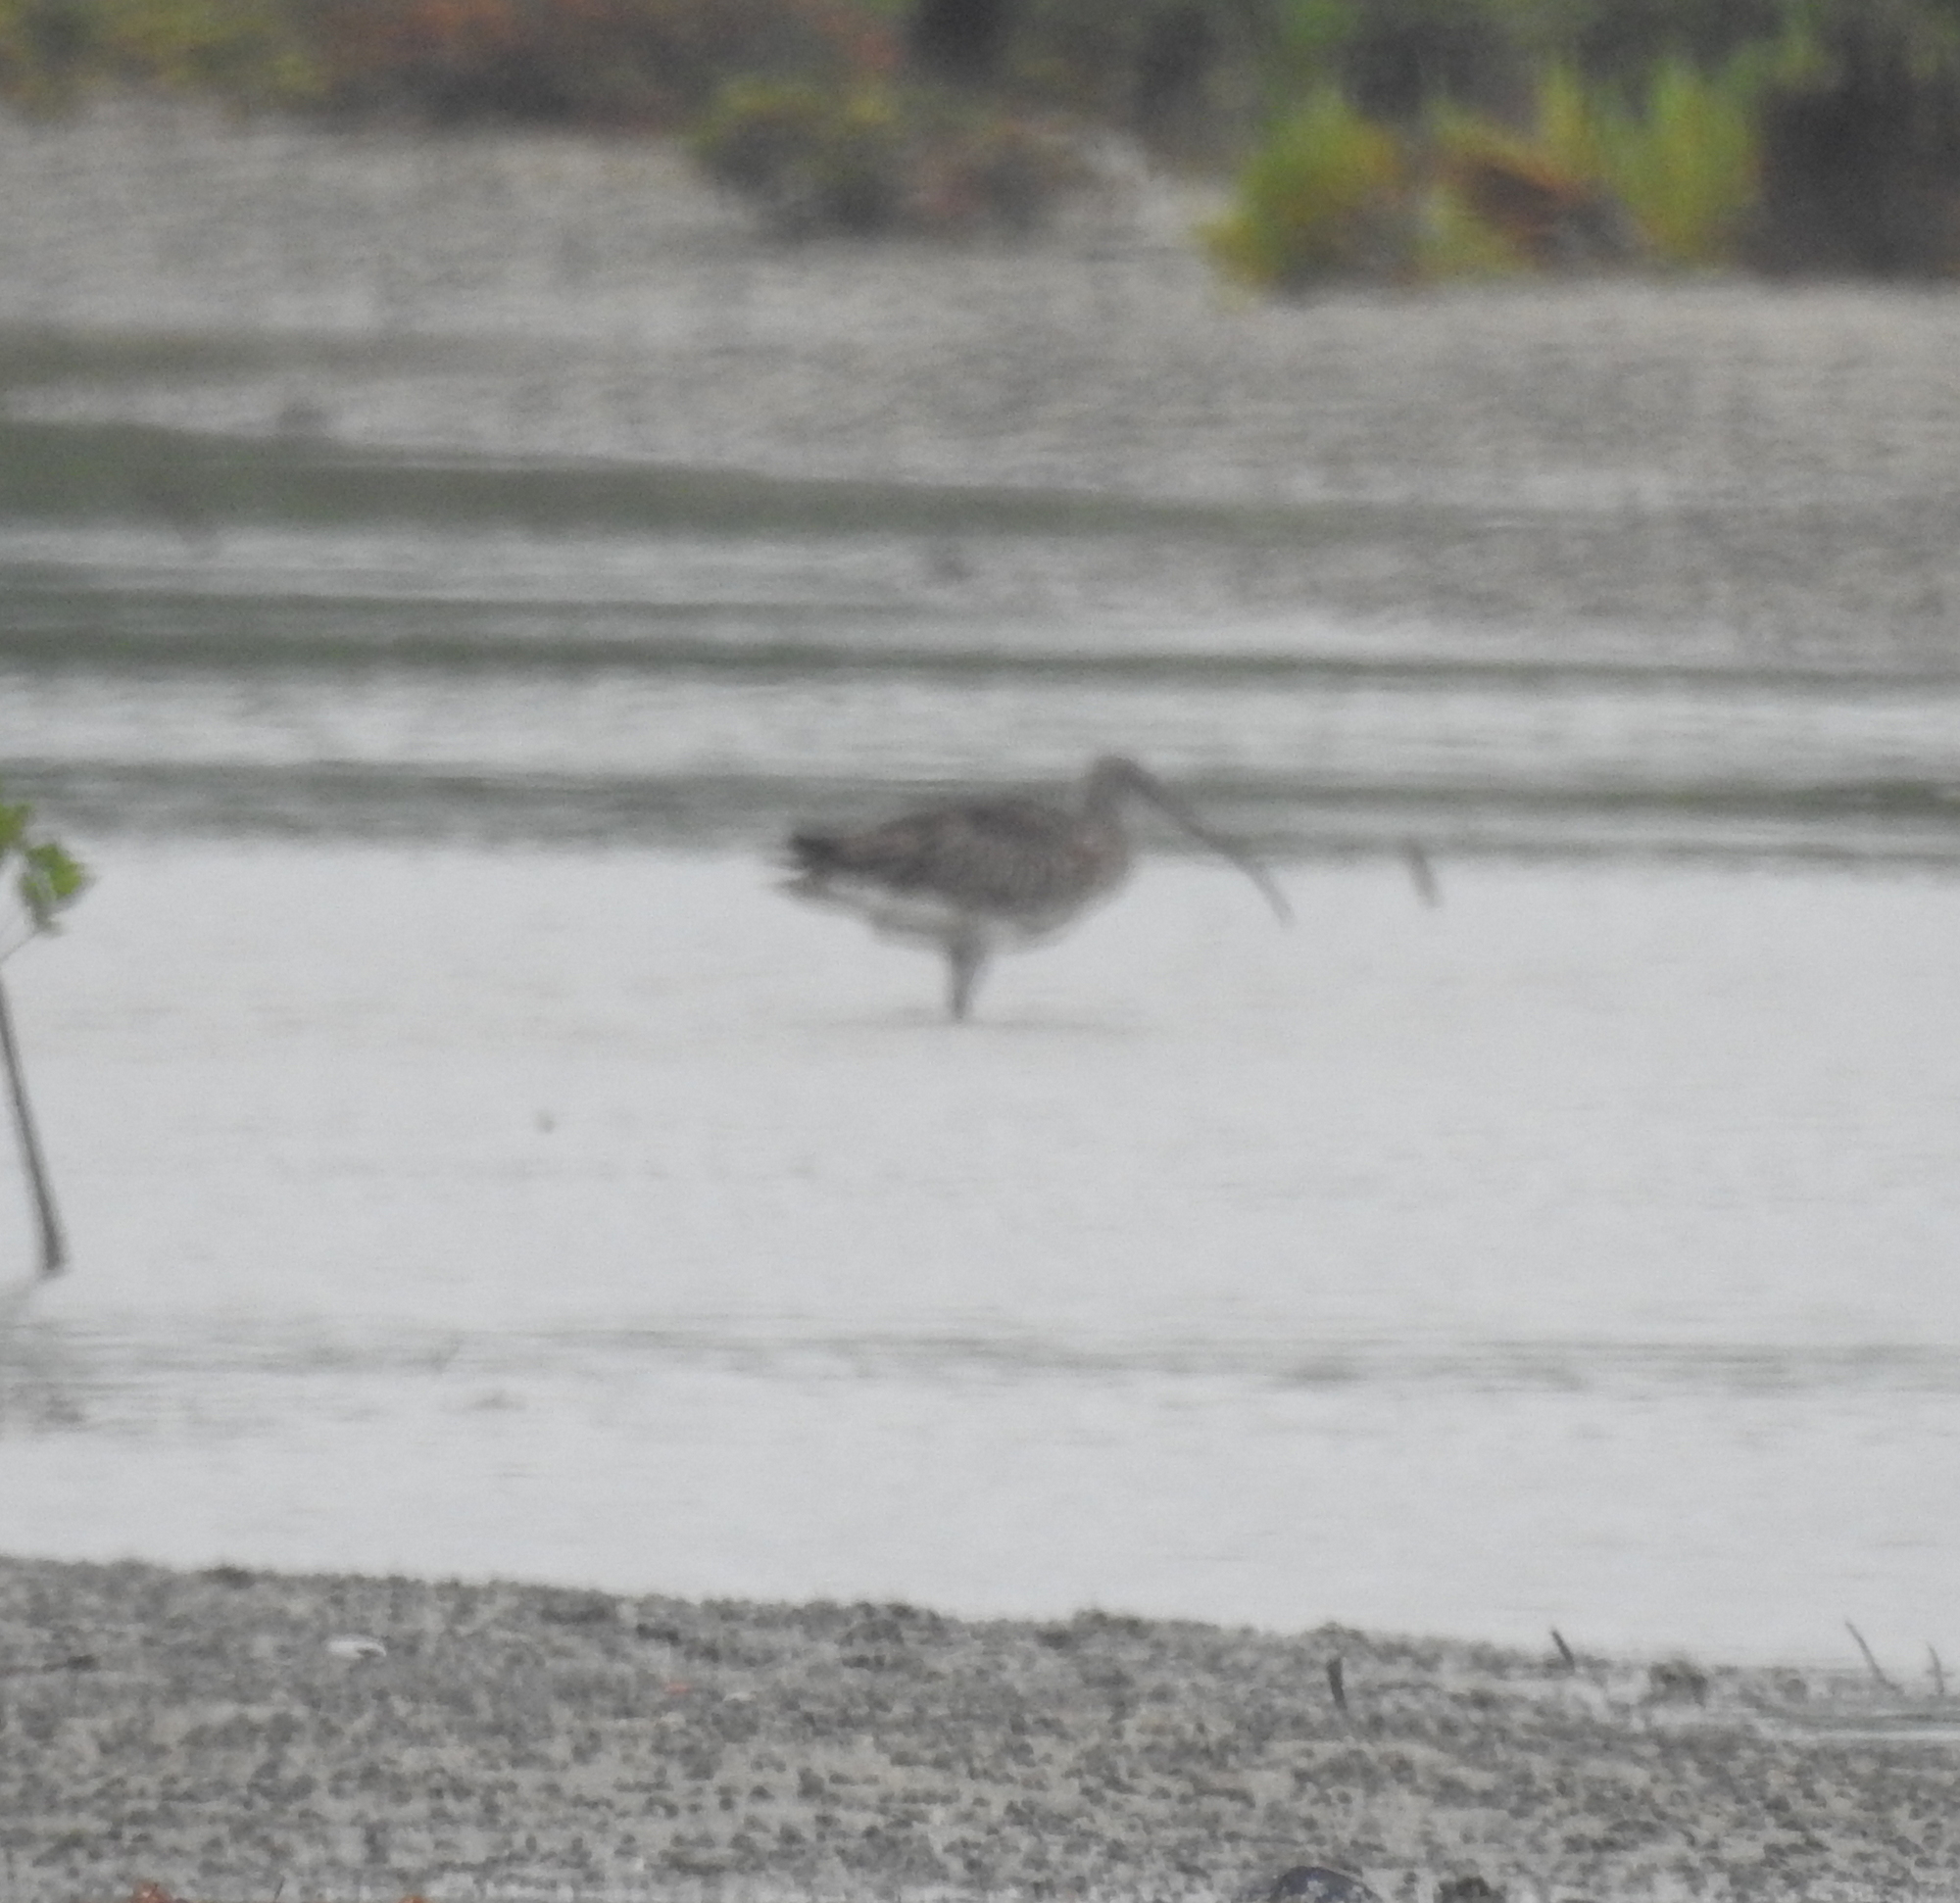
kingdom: Animalia
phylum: Chordata
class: Aves
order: Charadriiformes
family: Scolopacidae
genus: Numenius
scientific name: Numenius arquata
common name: Eurasian curlew
